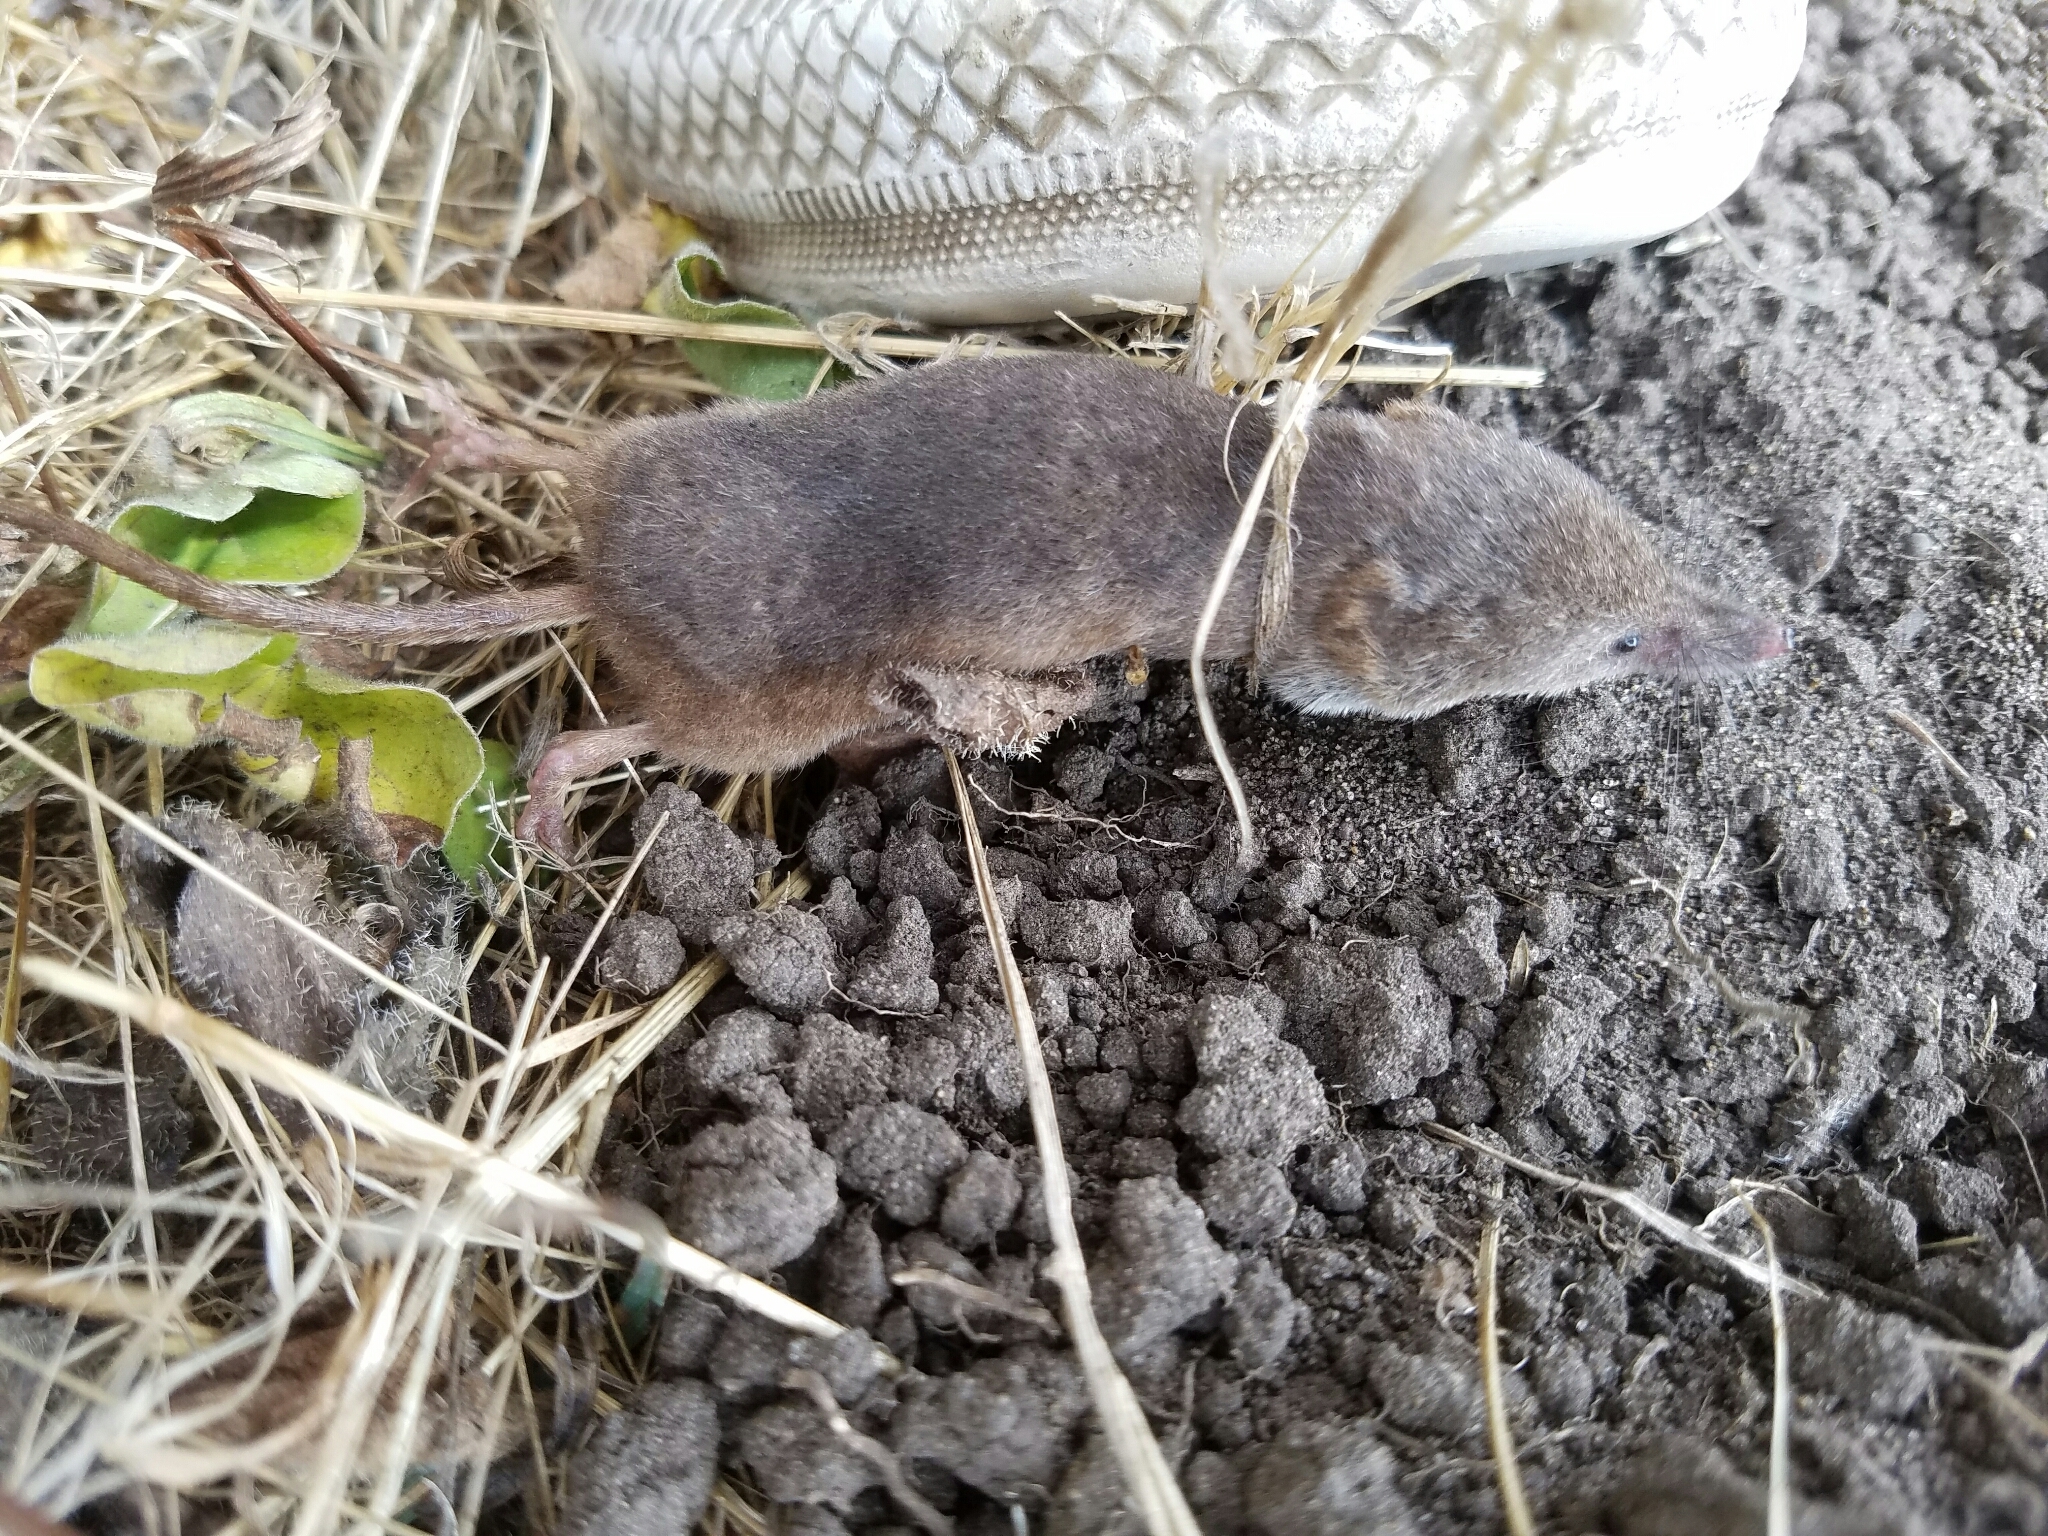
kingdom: Animalia
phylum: Chordata
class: Mammalia
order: Soricomorpha
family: Soricidae
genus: Sorex
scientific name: Sorex ornatus
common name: Ornate shrew
